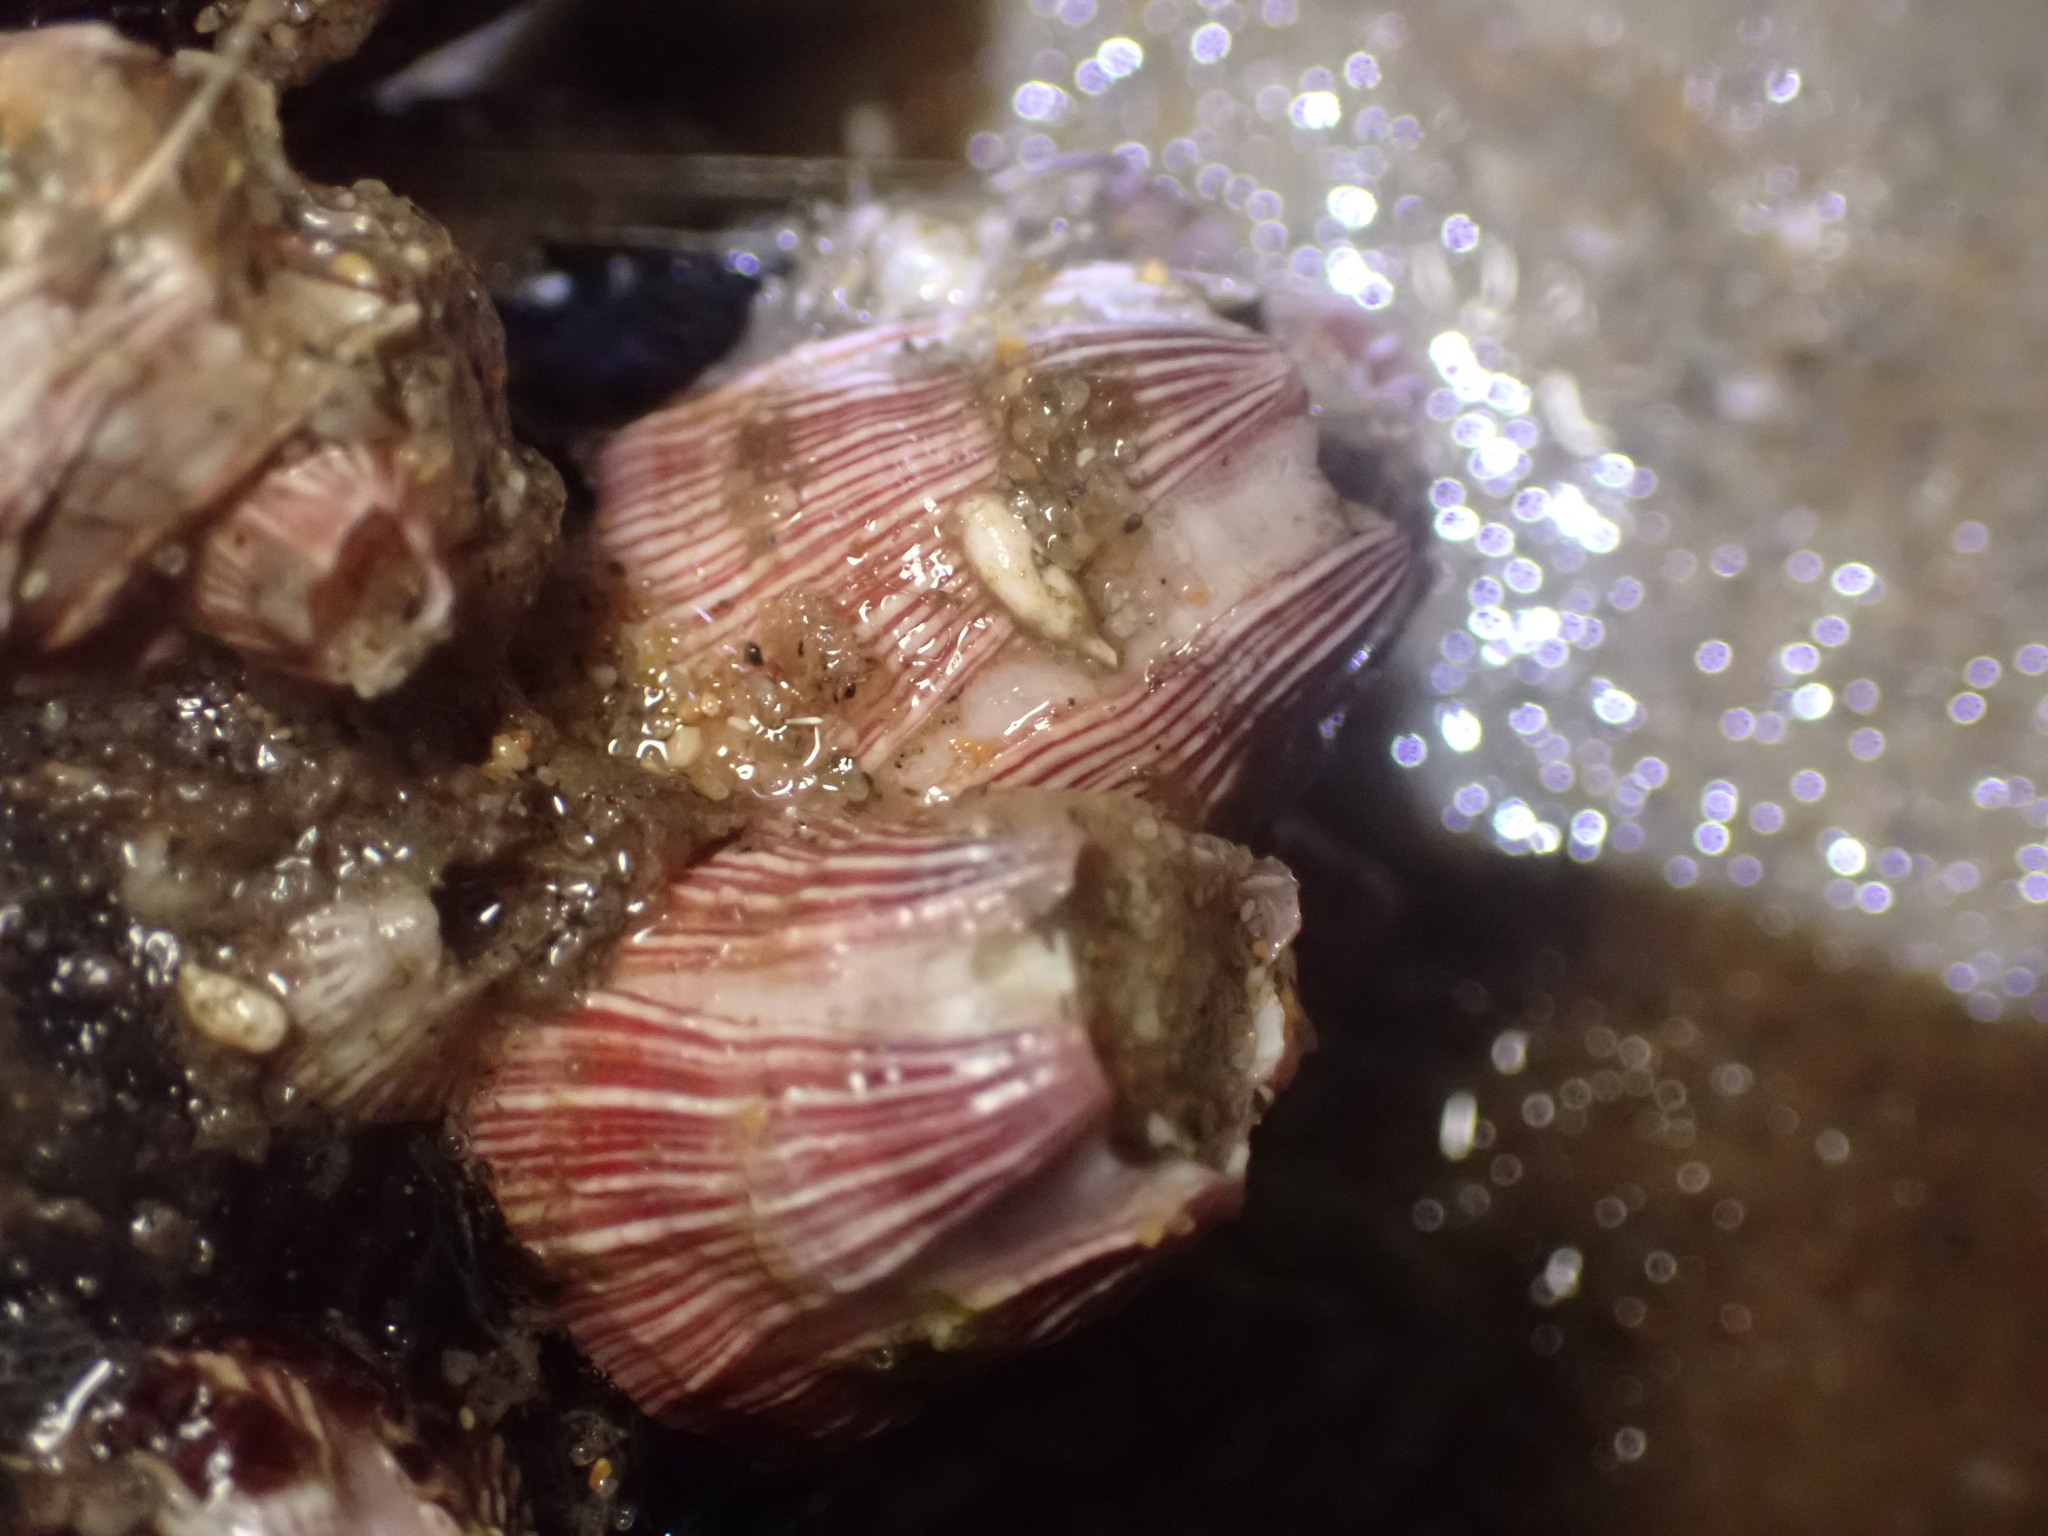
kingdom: Animalia
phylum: Arthropoda
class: Maxillopoda
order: Sessilia
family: Balanidae
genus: Megabalanus
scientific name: Megabalanus californicus
